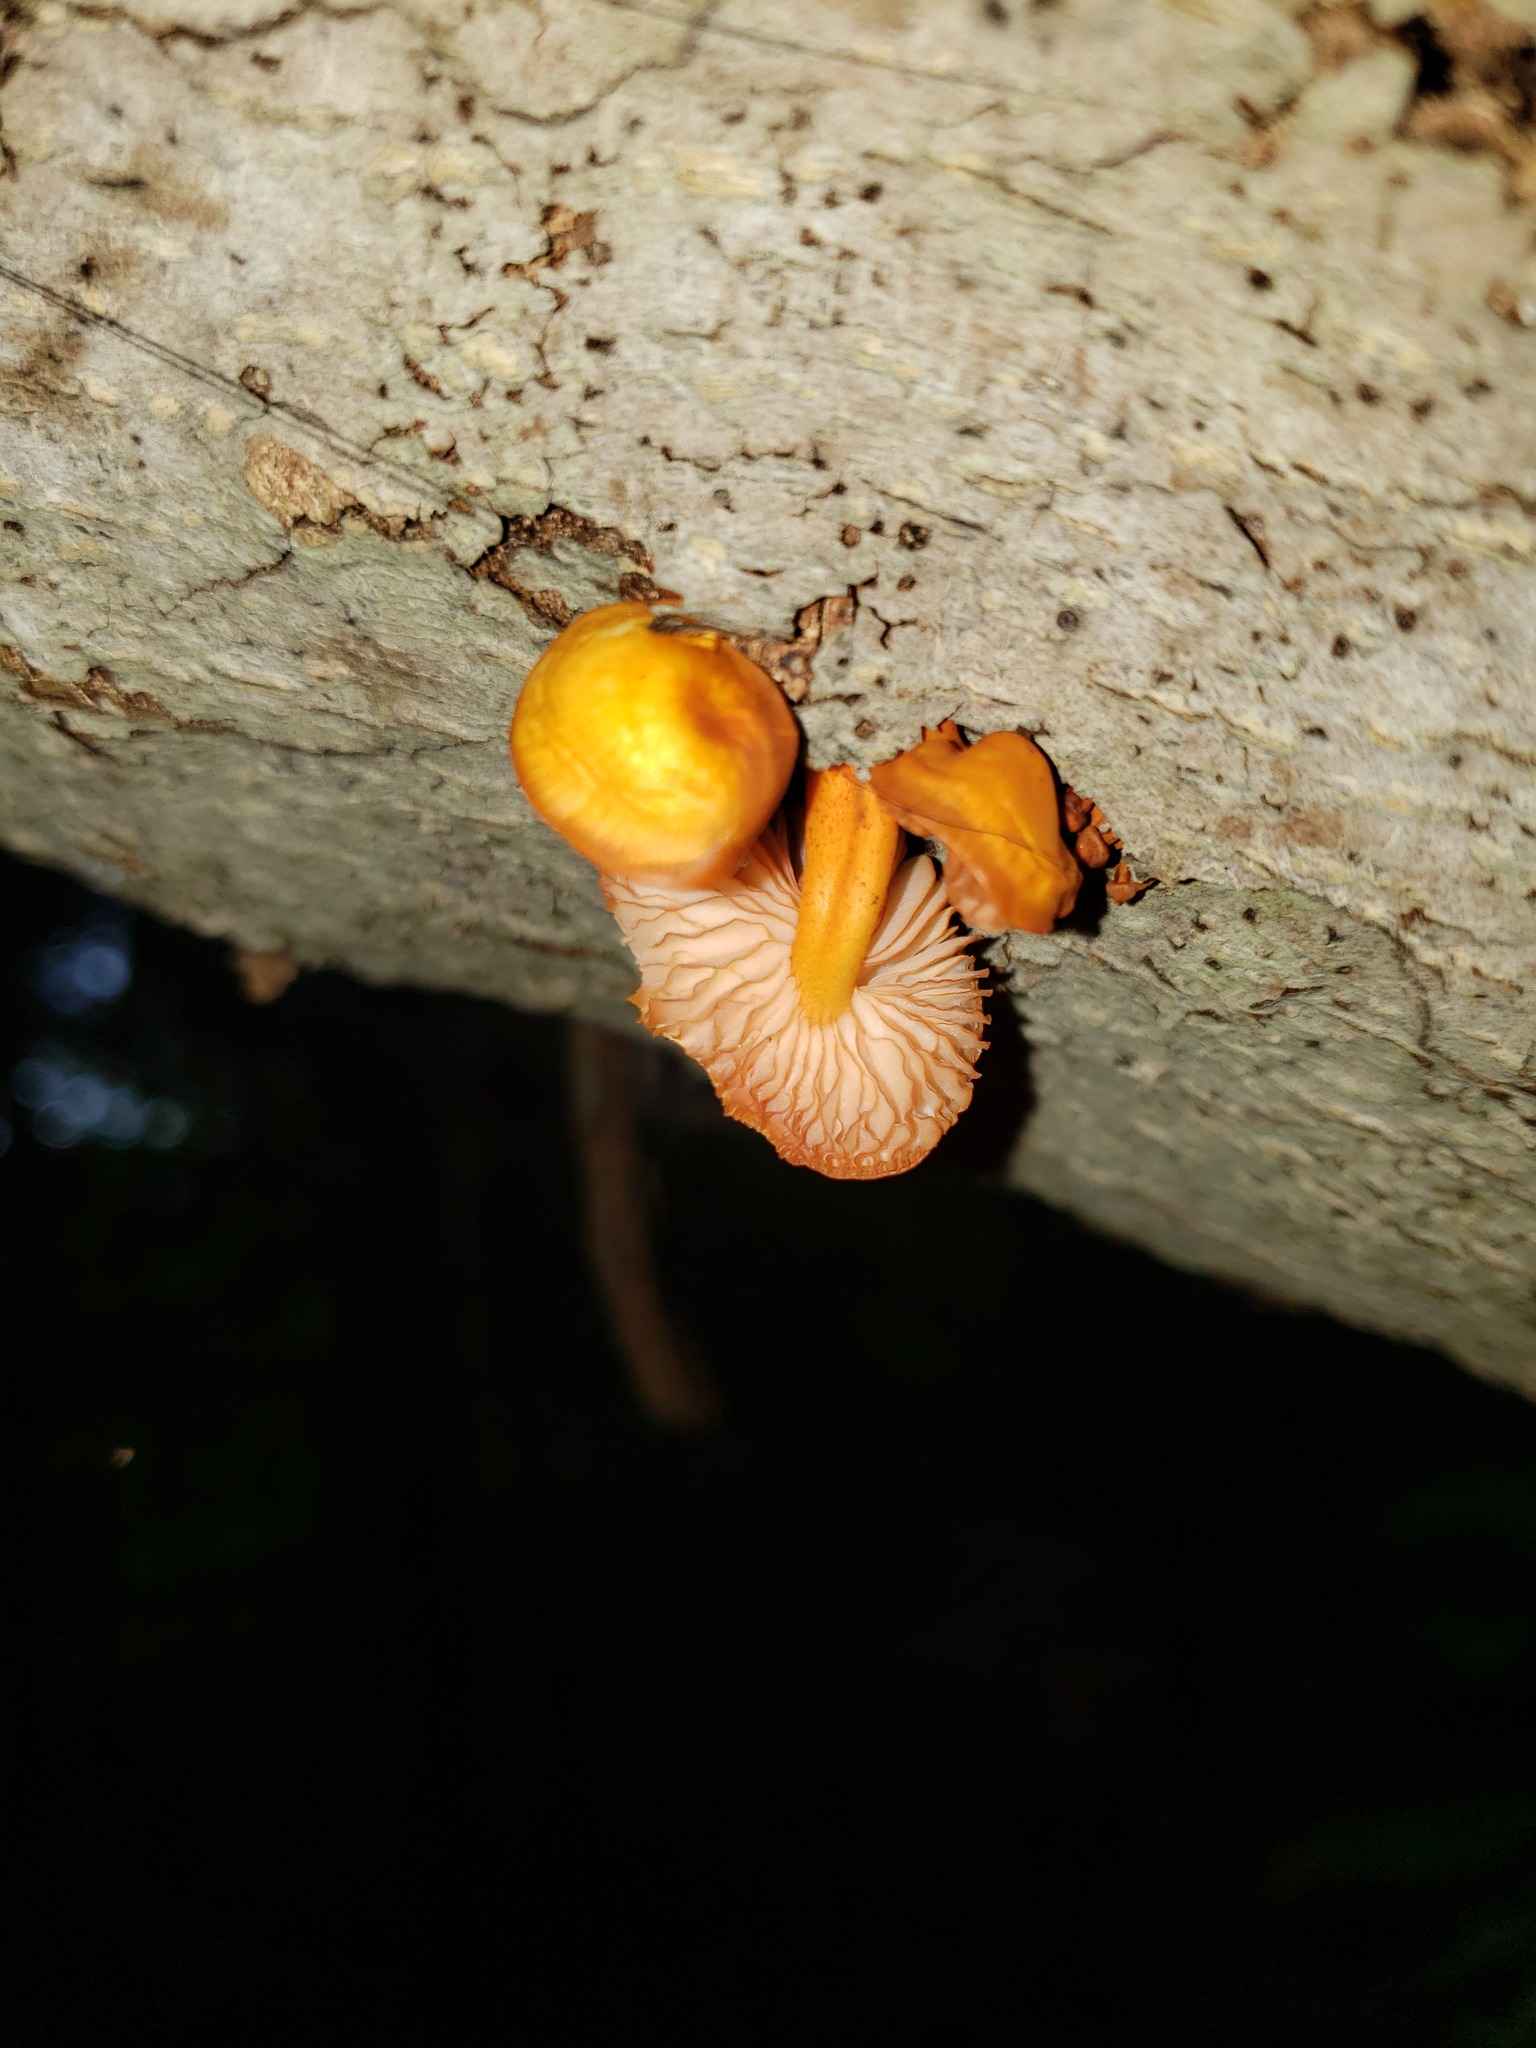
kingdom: Fungi
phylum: Basidiomycota
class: Agaricomycetes
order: Agaricales
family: Mycenaceae
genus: Mycena
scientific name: Mycena leaiana
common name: Orange mycena
